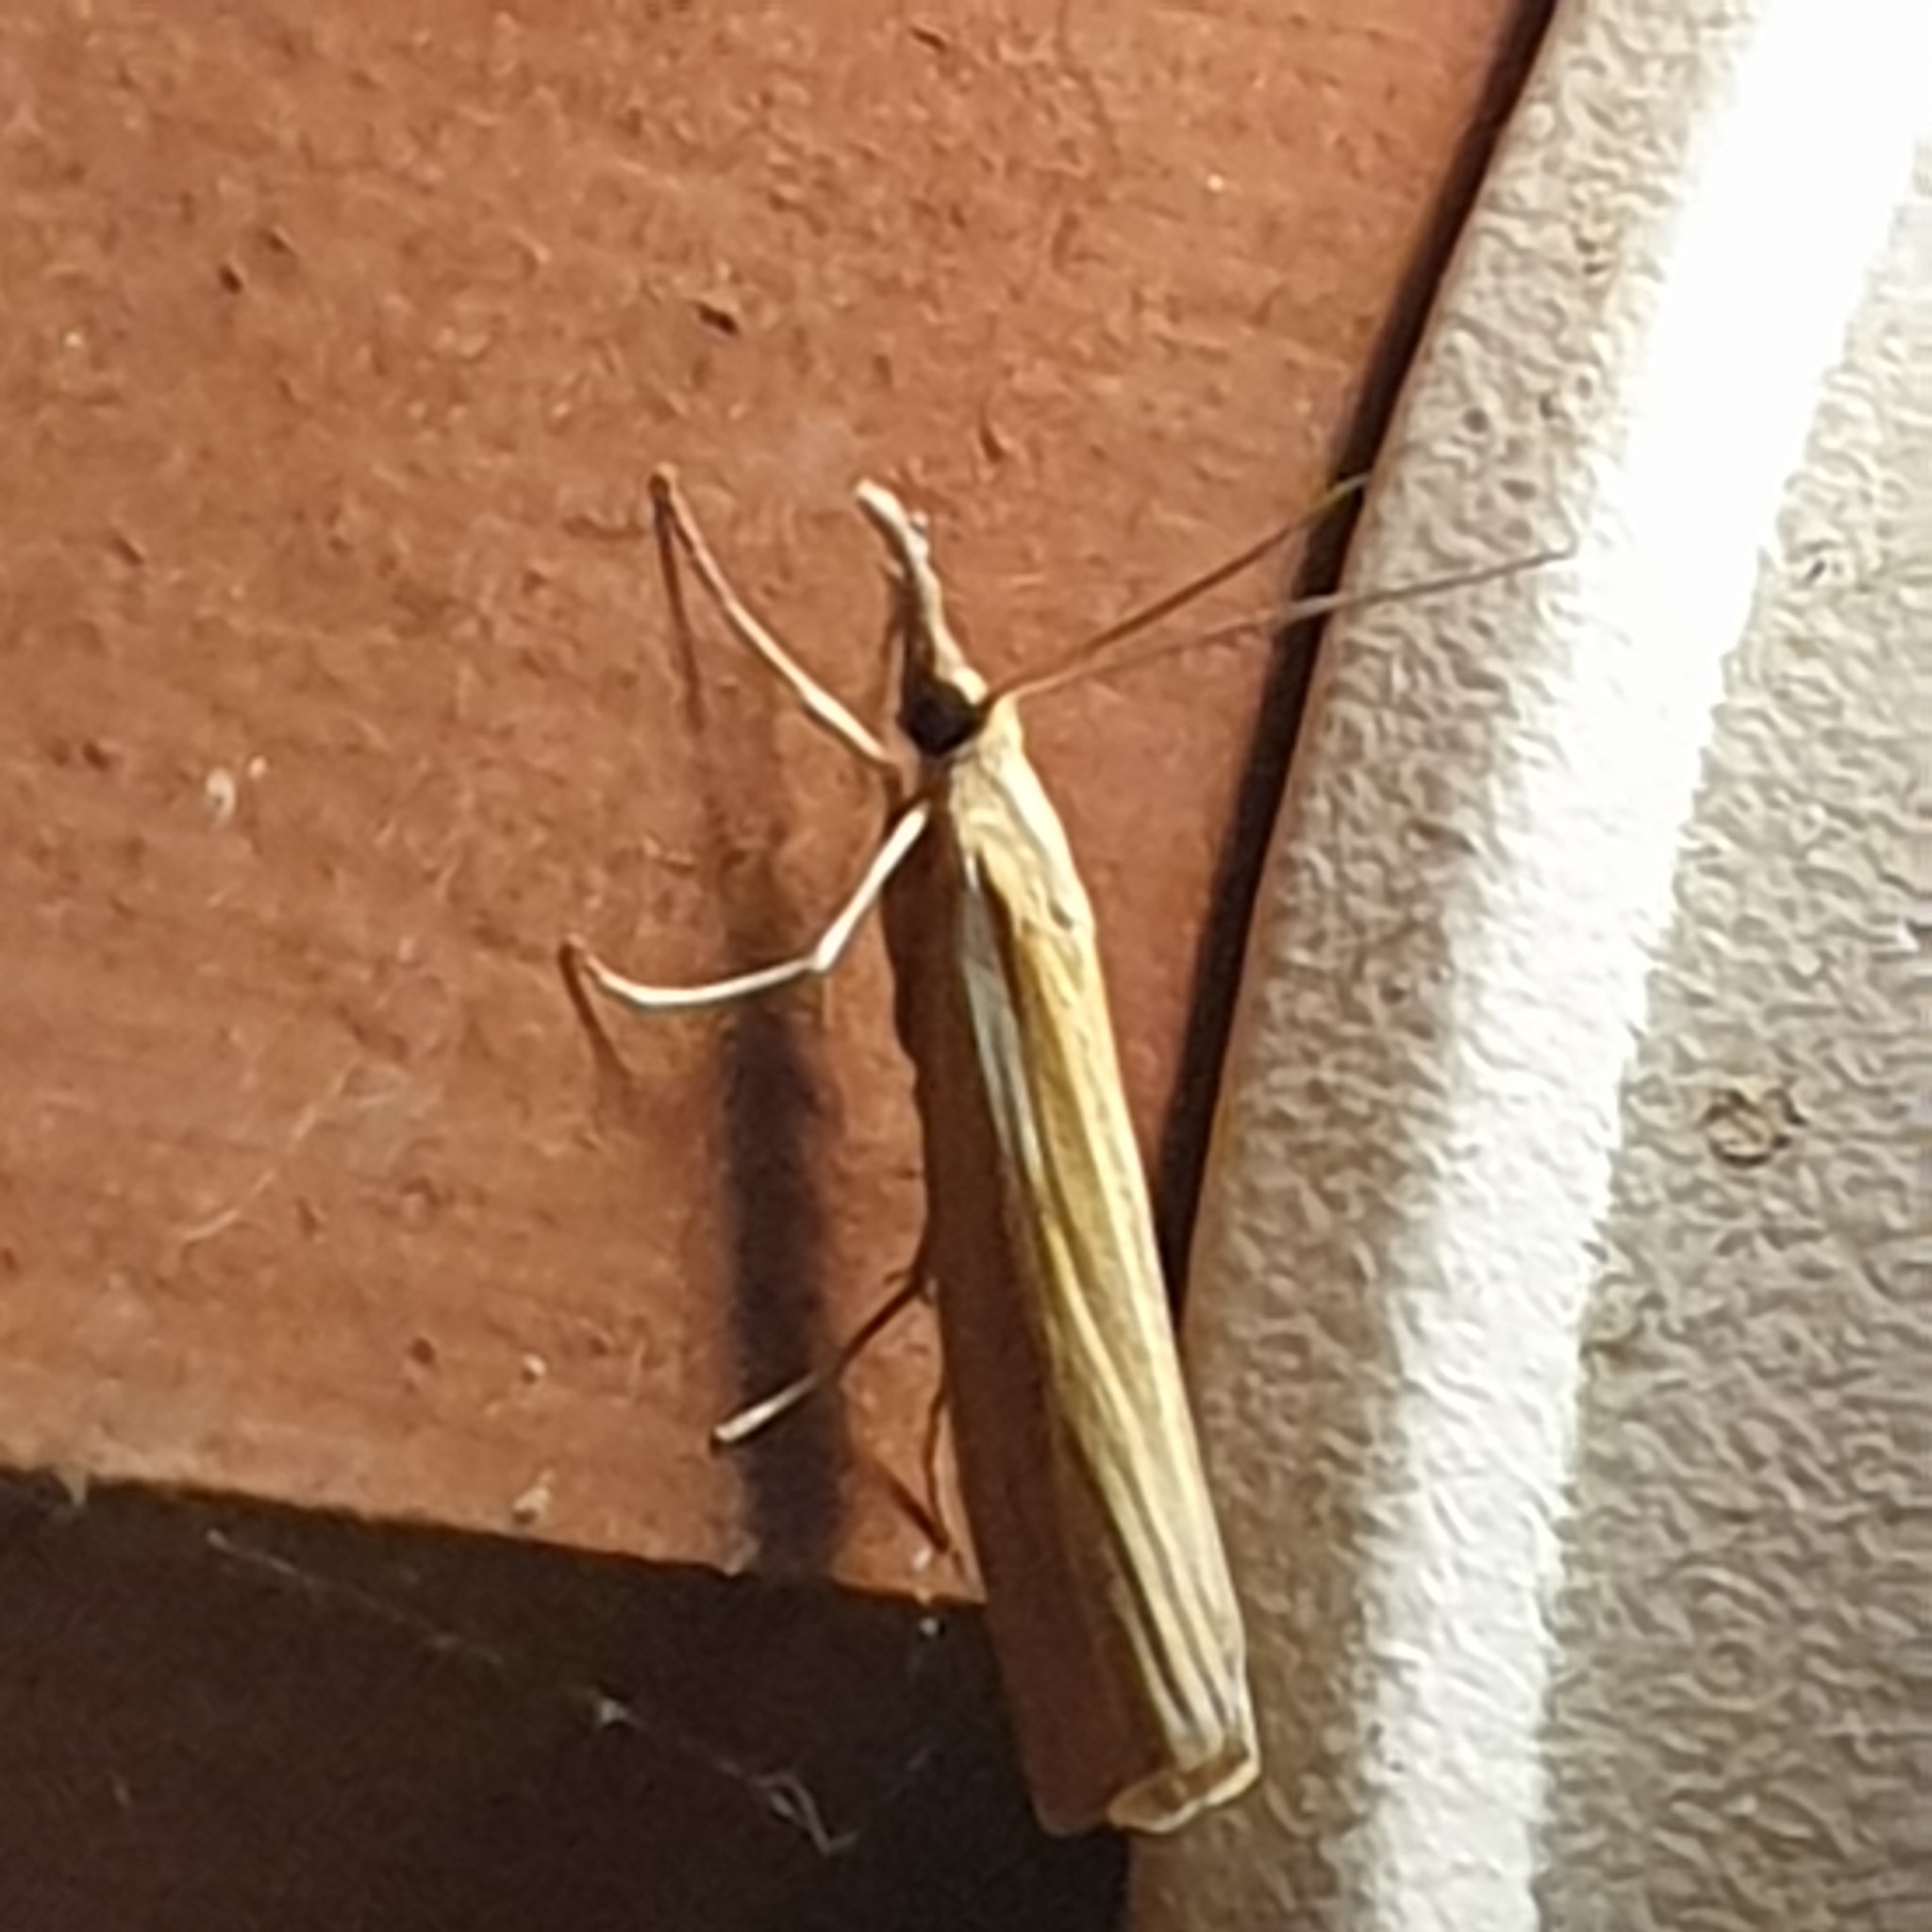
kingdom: Animalia
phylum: Arthropoda
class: Insecta
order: Lepidoptera
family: Crambidae
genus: Agriphila
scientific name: Agriphila tristellus
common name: Common grass-veneer
